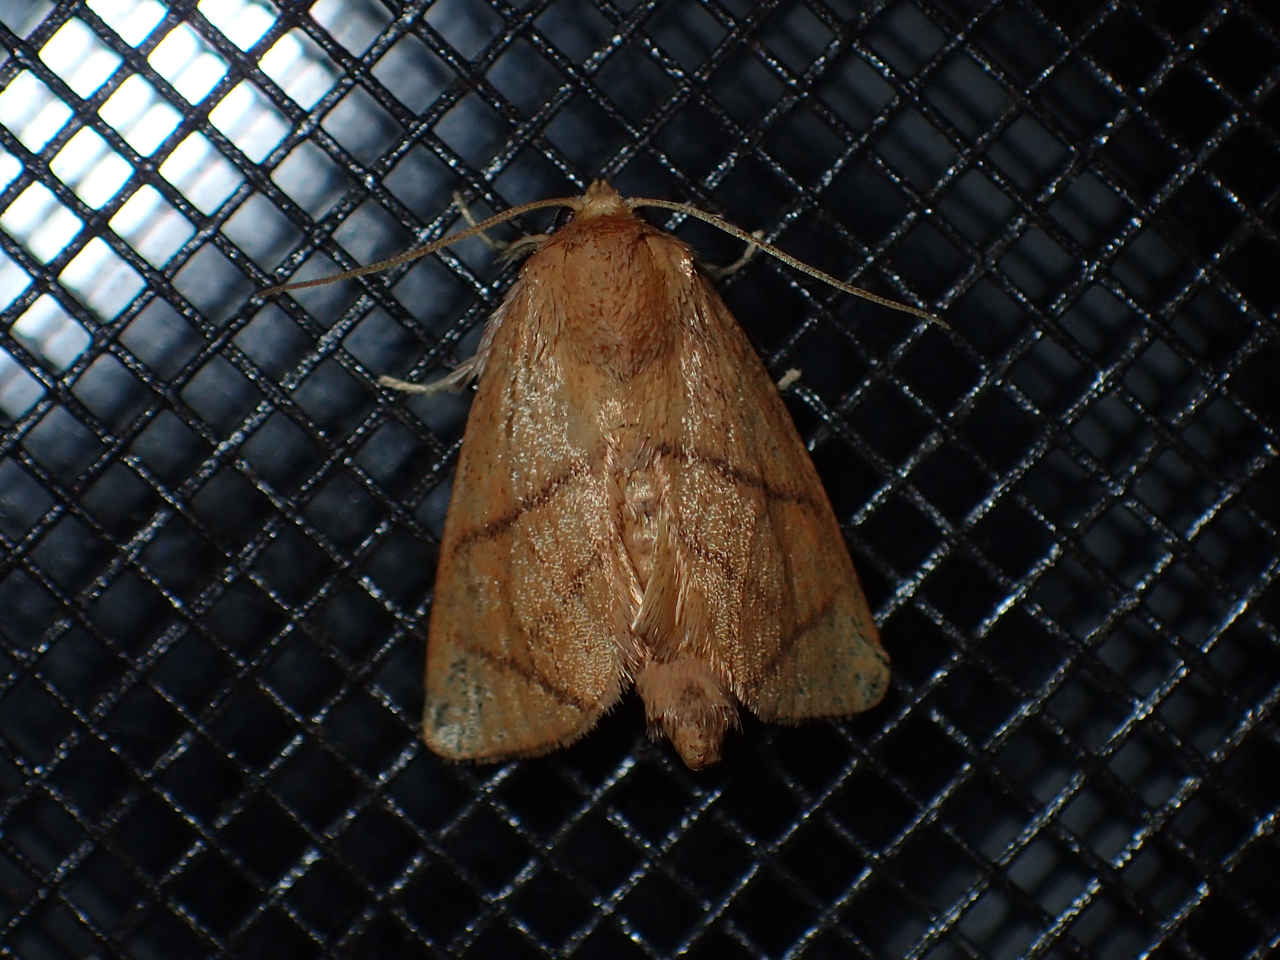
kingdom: Animalia
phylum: Arthropoda
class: Insecta
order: Lepidoptera
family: Limacodidae
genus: Apoda
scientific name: Apoda y-inversa
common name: Yellow-collared slug moth
